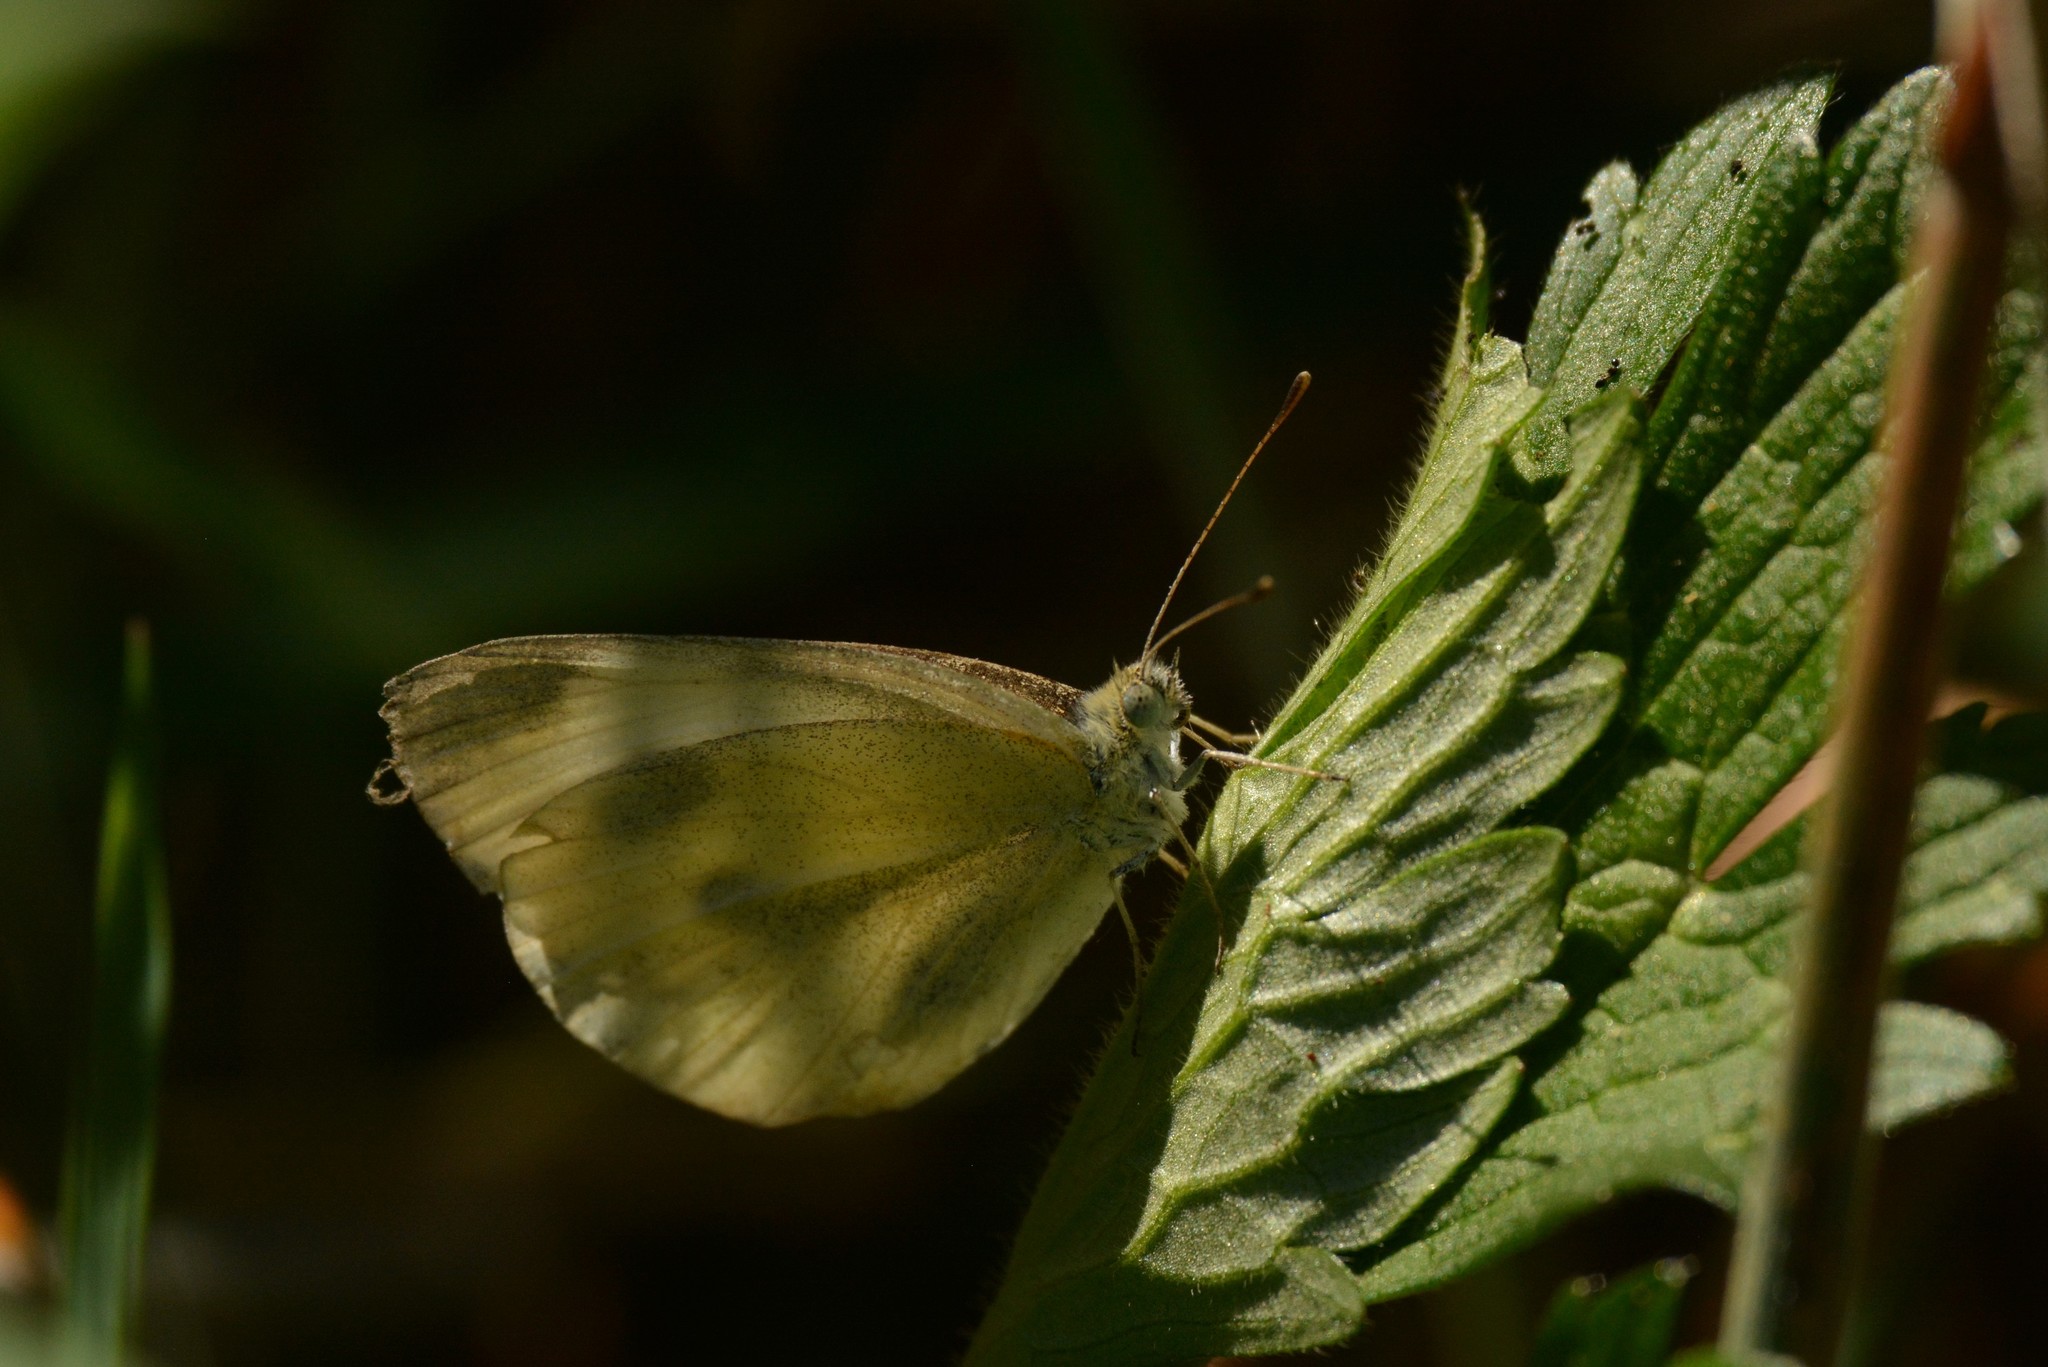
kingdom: Animalia
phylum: Arthropoda
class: Insecta
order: Lepidoptera
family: Pieridae
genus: Pieris
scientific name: Pieris rapae
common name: Small white
